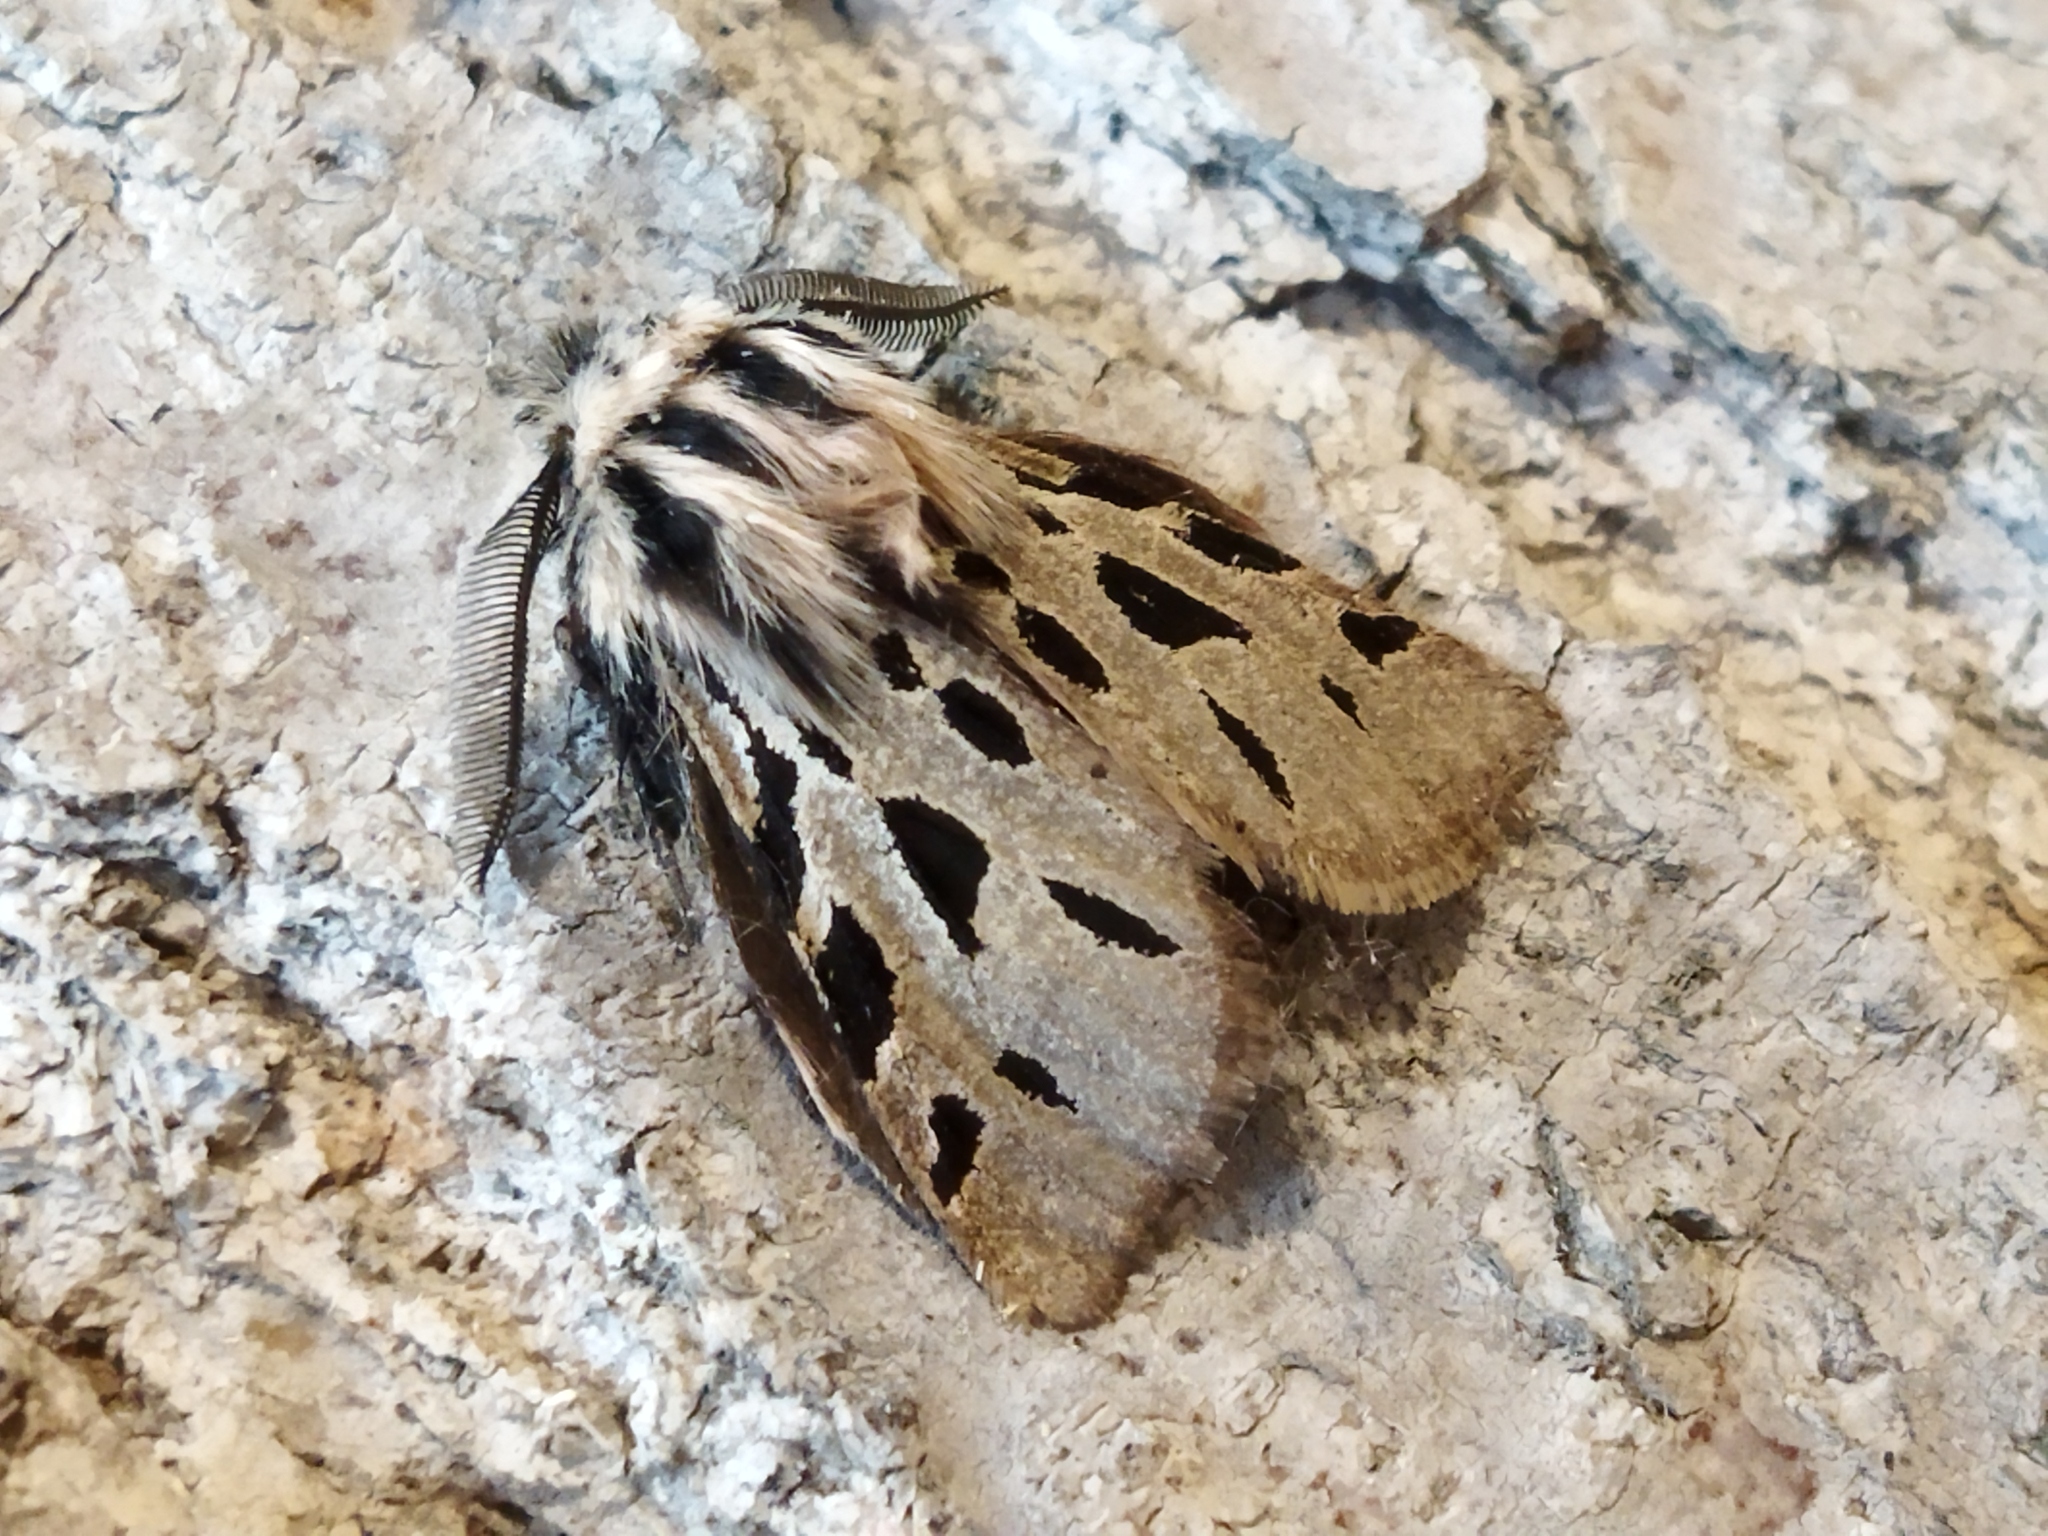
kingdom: Animalia
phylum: Arthropoda
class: Insecta
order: Lepidoptera
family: Erebidae
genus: Ocnogyna
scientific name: Ocnogyna parasita
